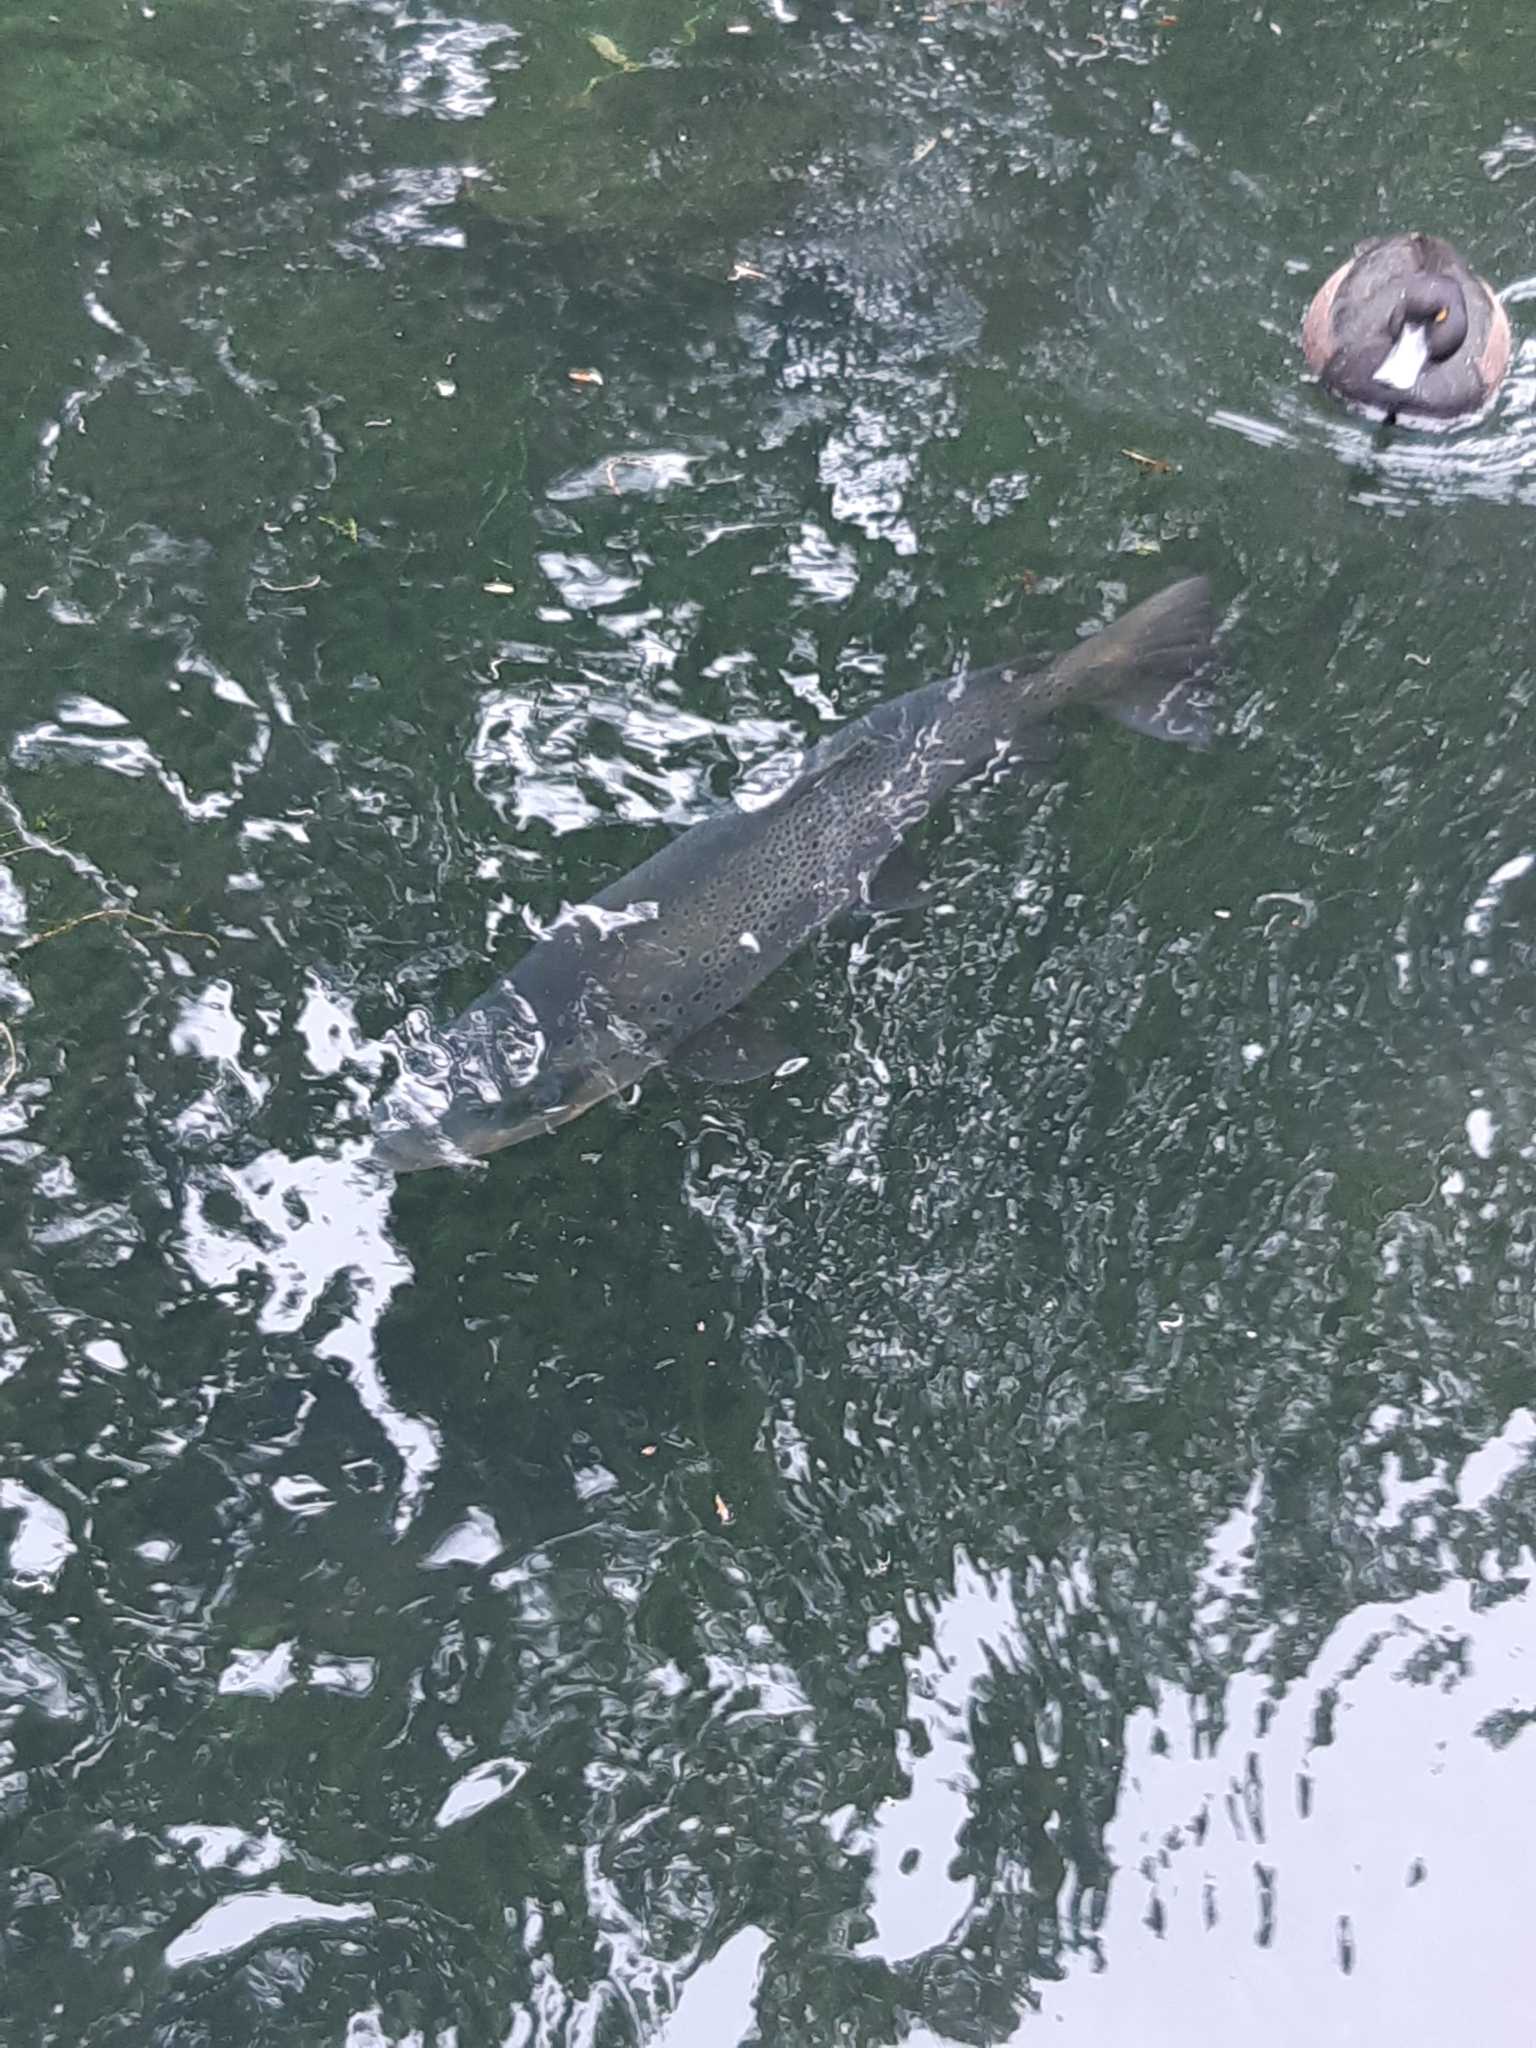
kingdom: Animalia
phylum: Chordata
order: Salmoniformes
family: Salmonidae
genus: Salmo
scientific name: Salmo trutta
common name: Brown trout
